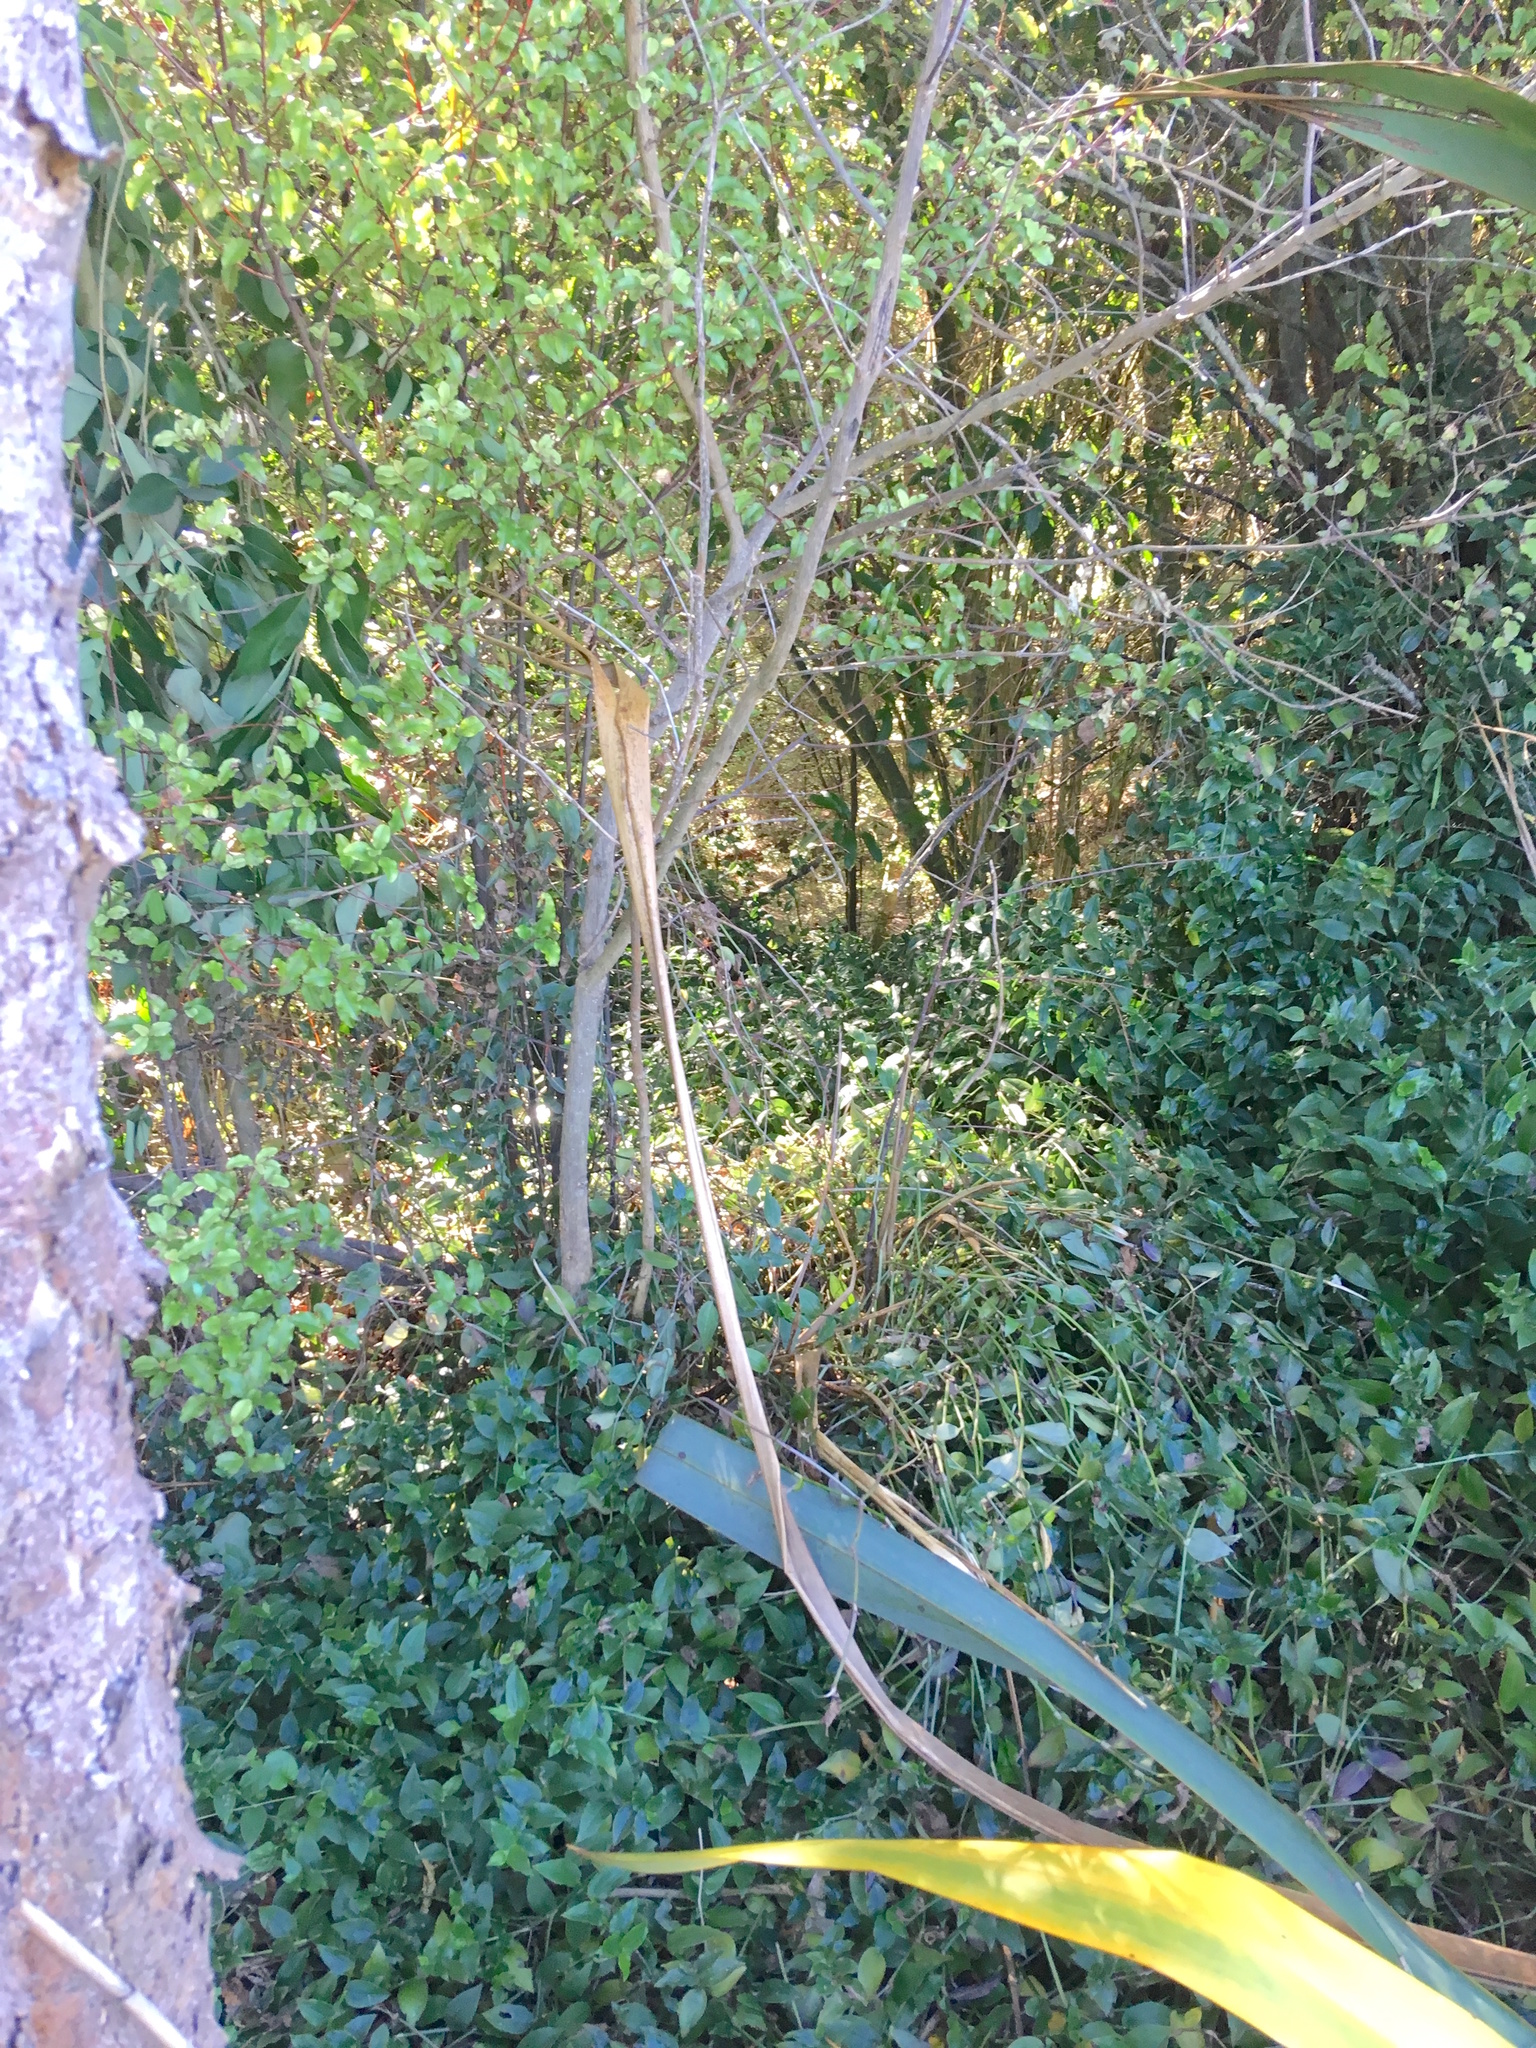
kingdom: Plantae
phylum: Tracheophyta
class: Liliopsida
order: Commelinales
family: Commelinaceae
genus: Tradescantia
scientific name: Tradescantia fluminensis
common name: Wandering-jew
